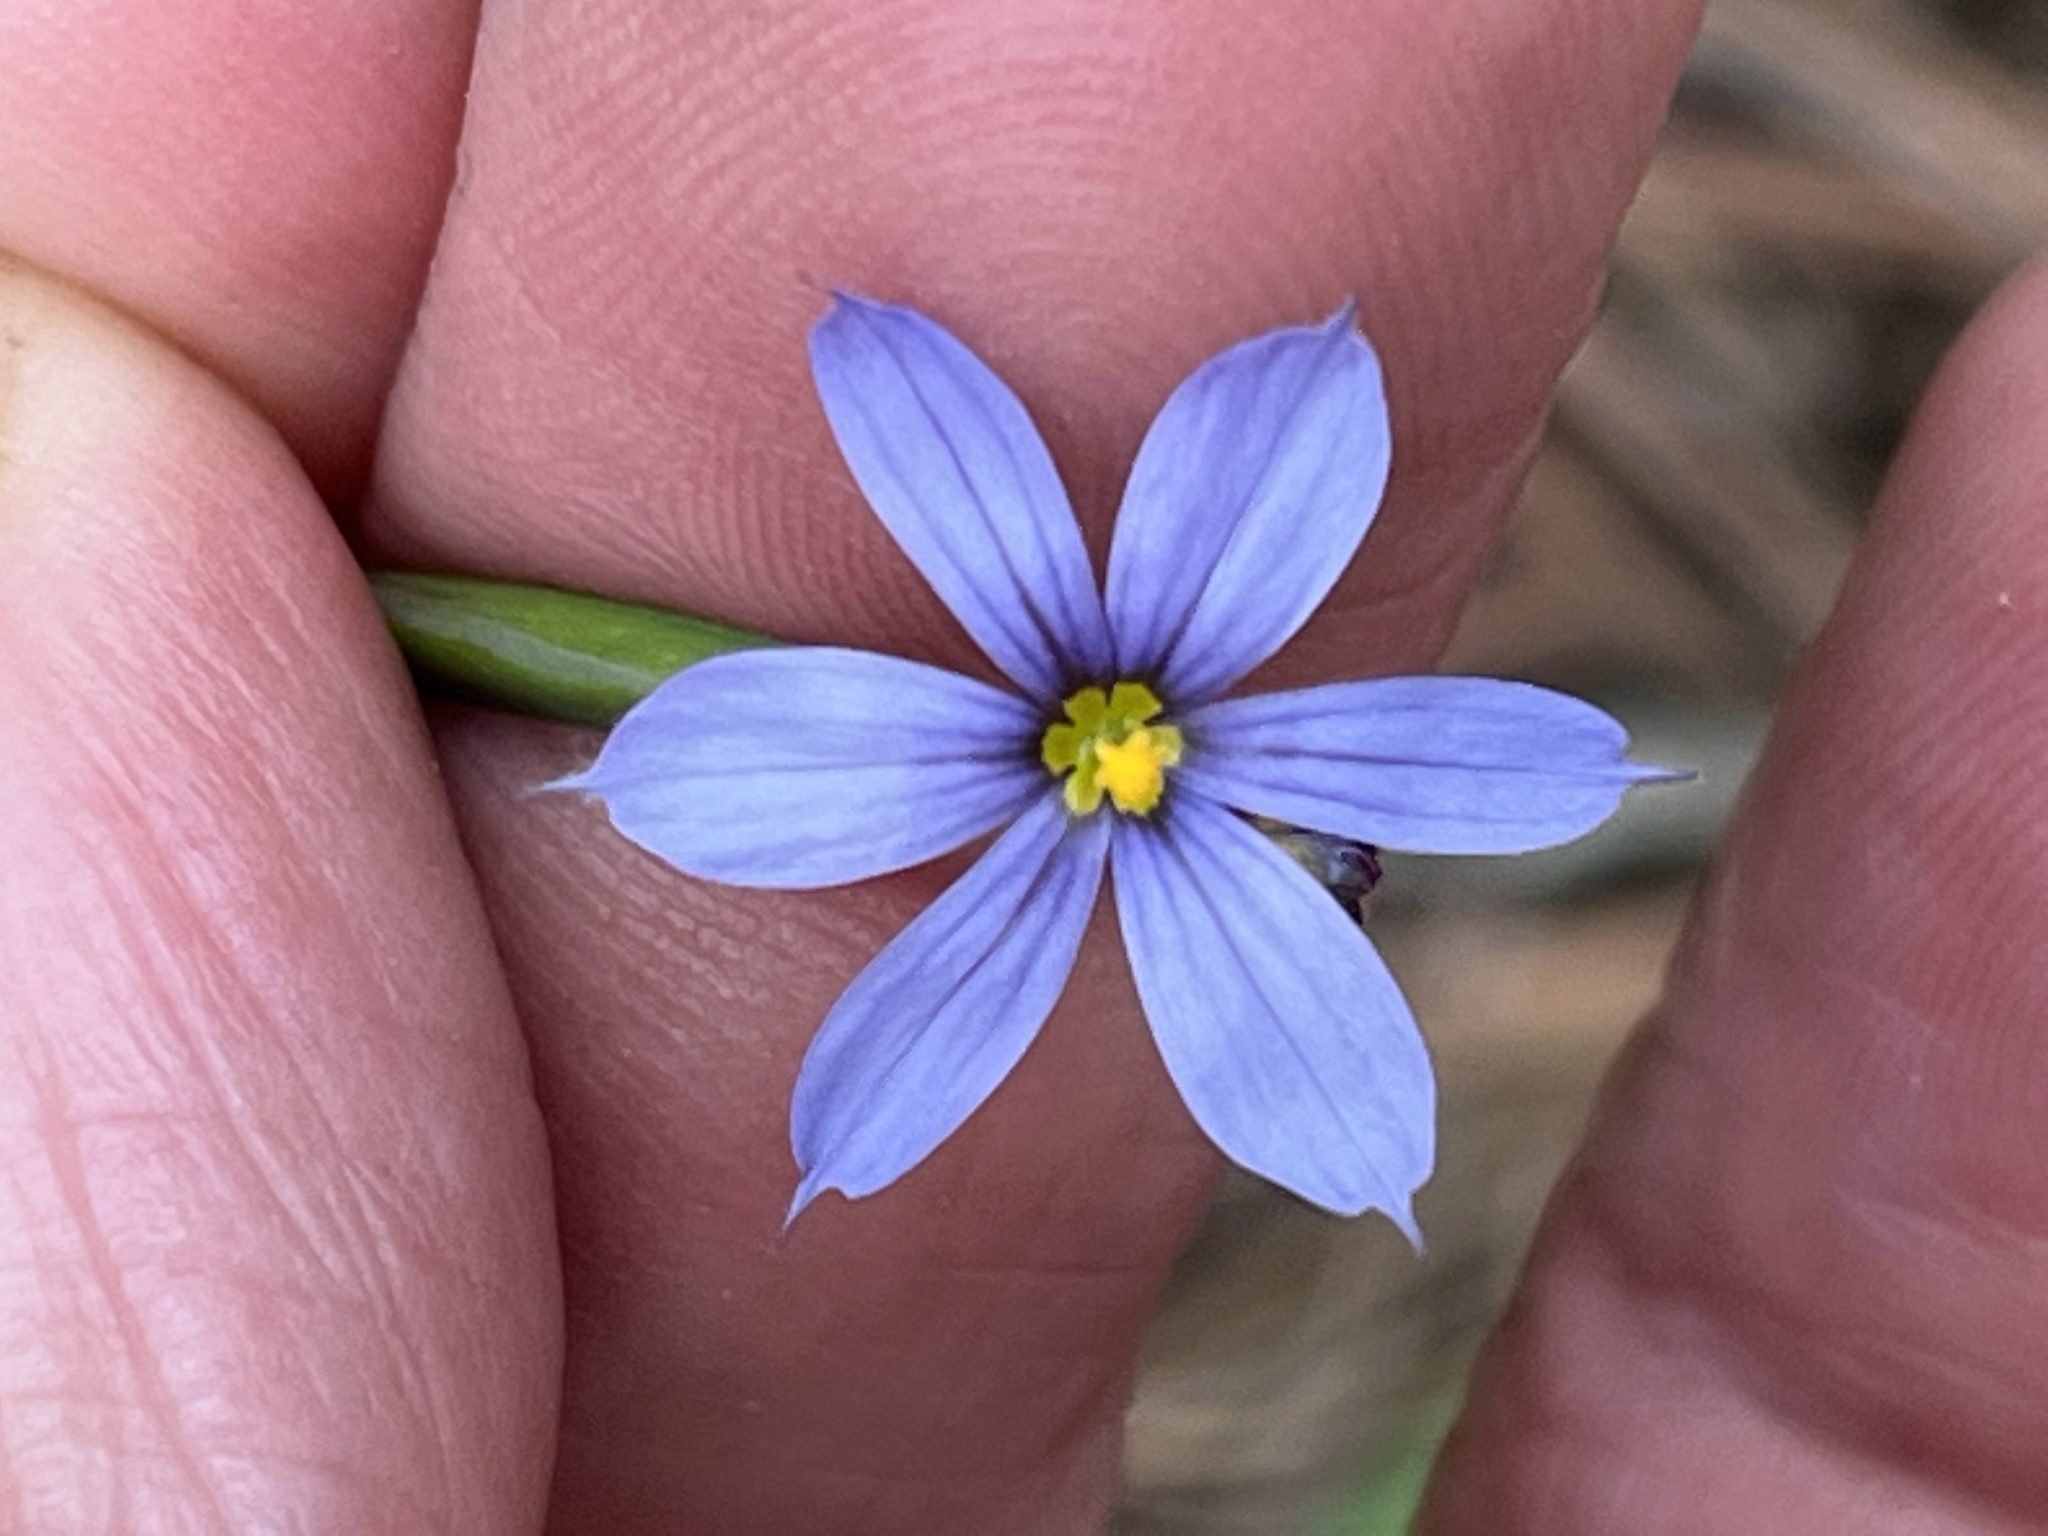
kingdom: Plantae
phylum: Tracheophyta
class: Liliopsida
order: Asparagales
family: Iridaceae
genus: Sisyrinchium
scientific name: Sisyrinchium nashii
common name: Nash's blue-eyed-grass
